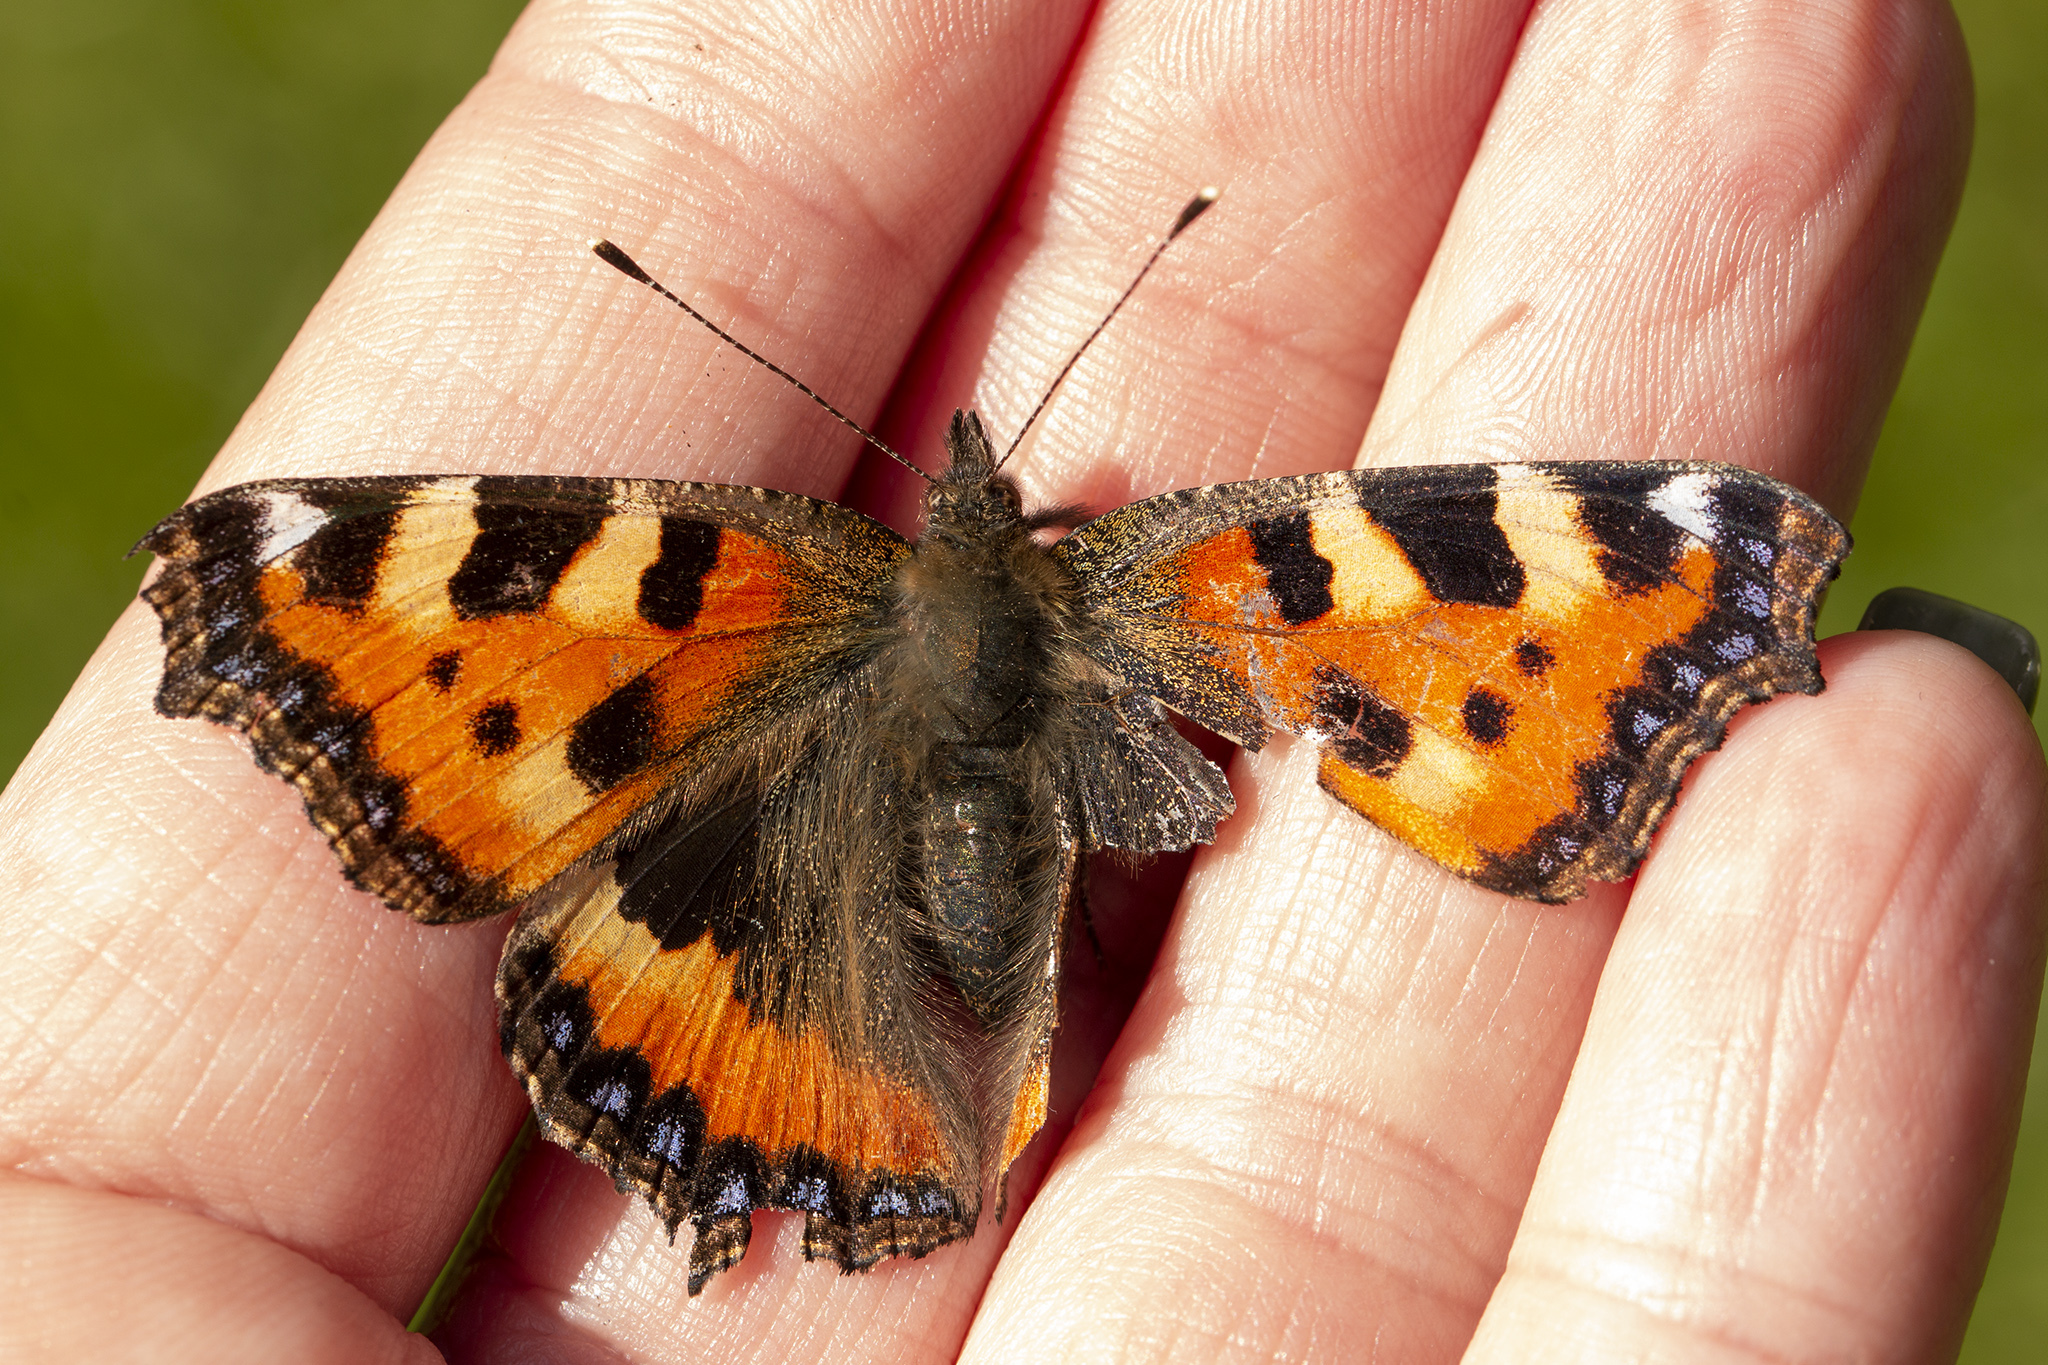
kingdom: Animalia
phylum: Arthropoda
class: Insecta
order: Lepidoptera
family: Nymphalidae
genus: Aglais
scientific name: Aglais urticae
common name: Small tortoiseshell
